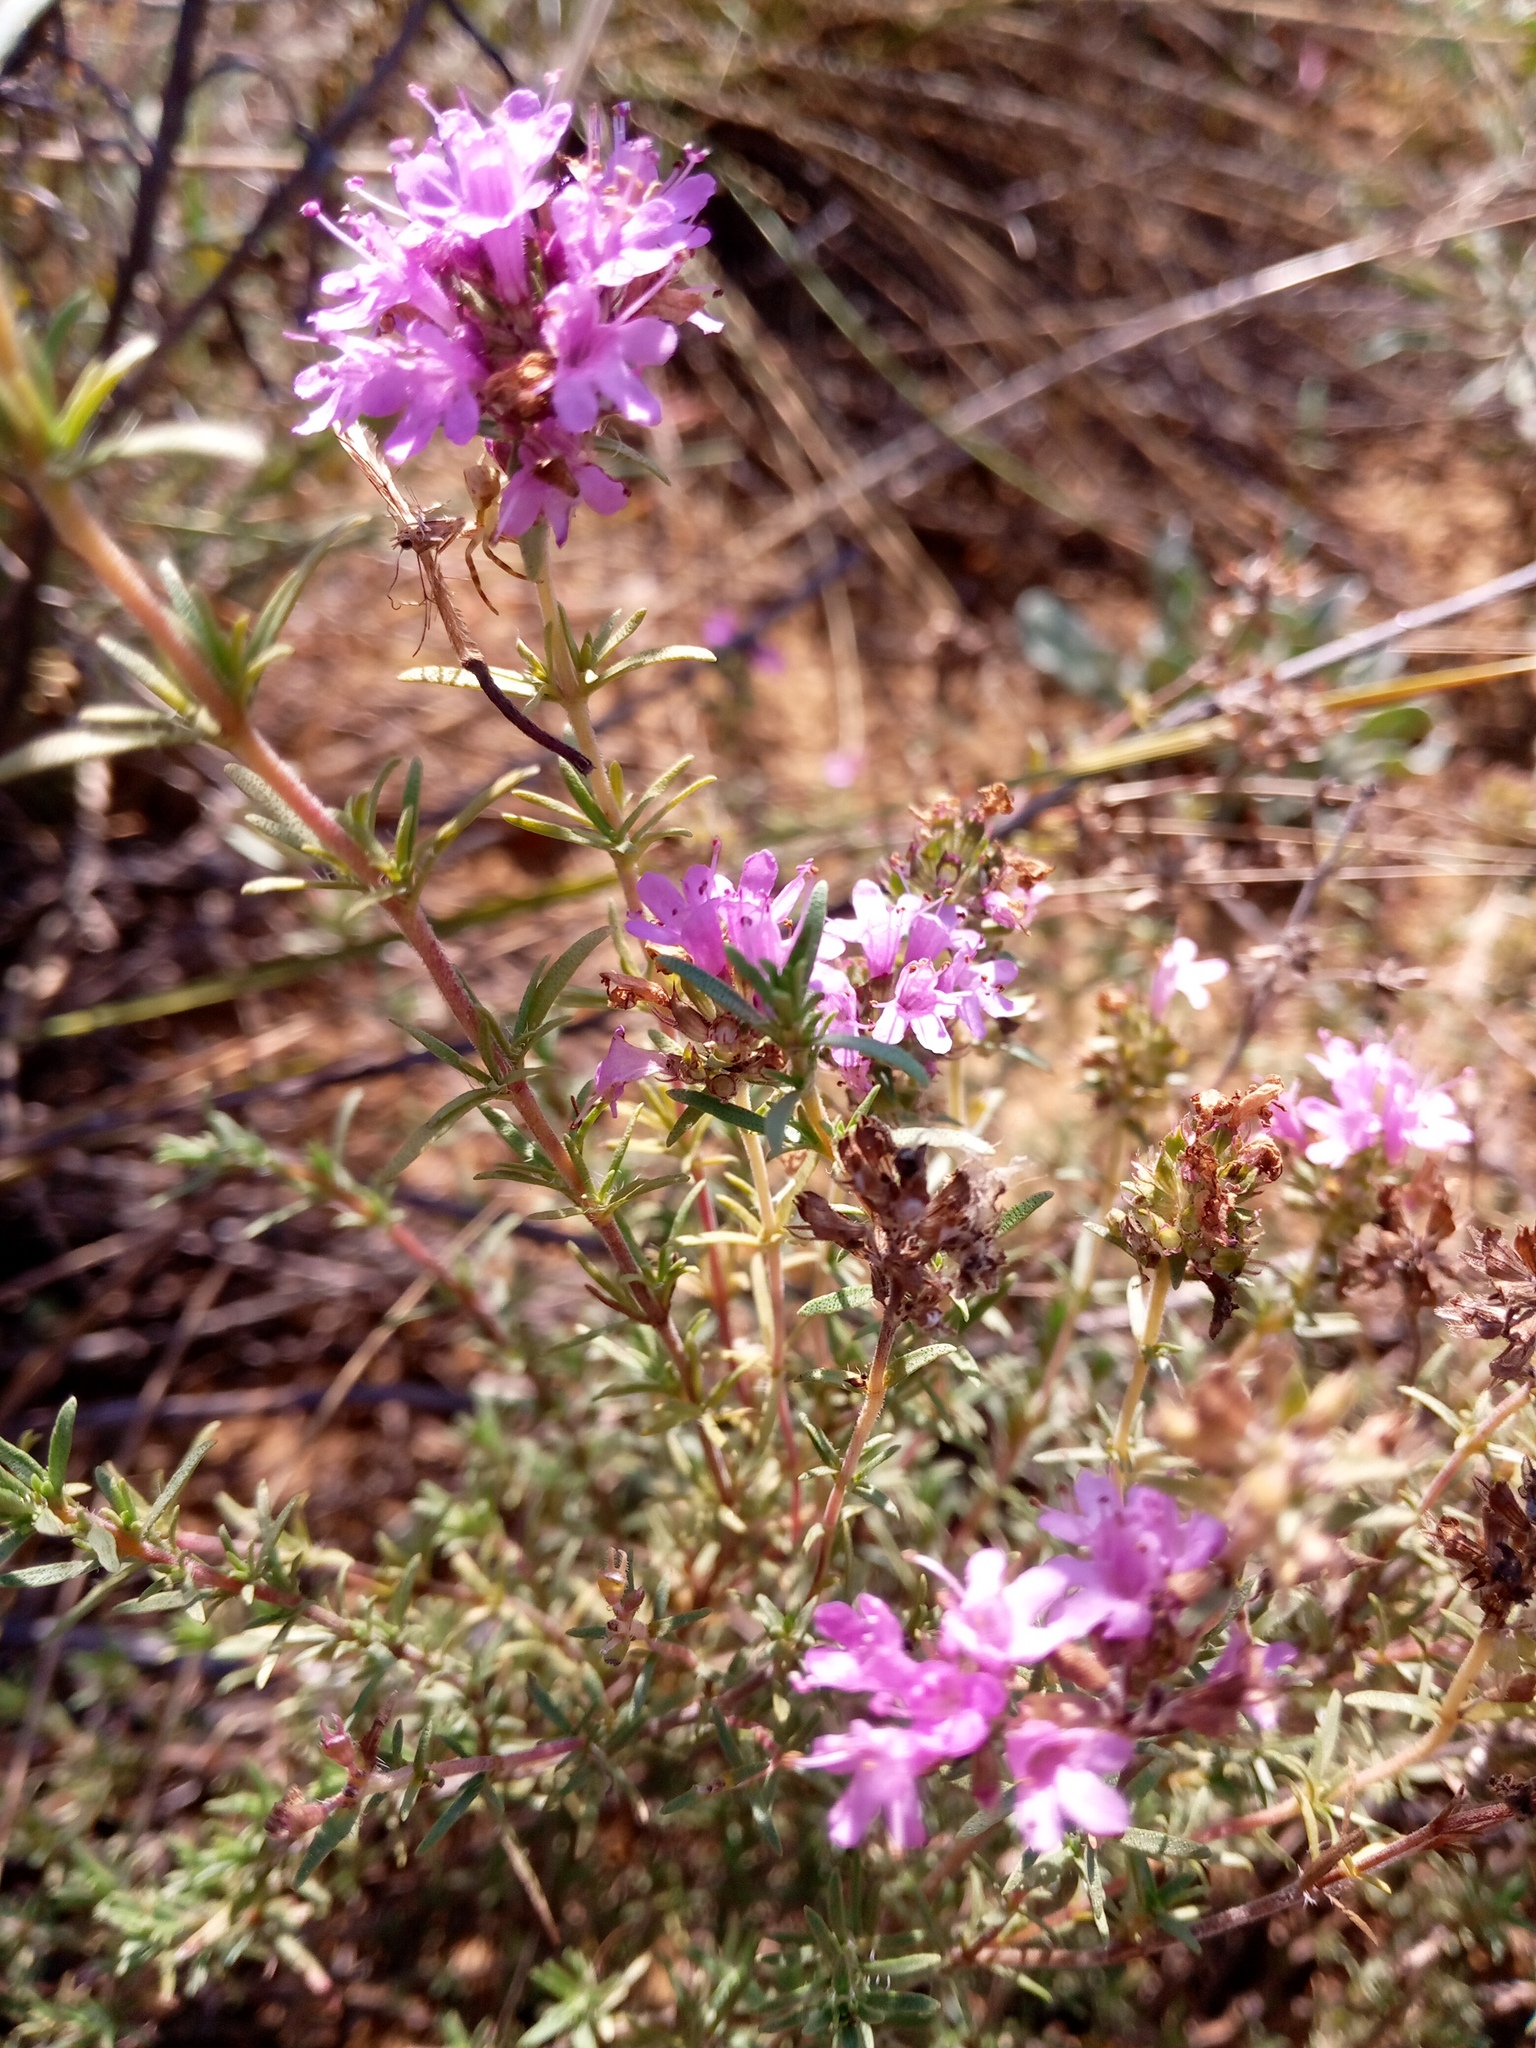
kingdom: Plantae
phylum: Tracheophyta
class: Magnoliopsida
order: Lamiales
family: Lamiaceae
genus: Thymus
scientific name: Thymus pallasianus
